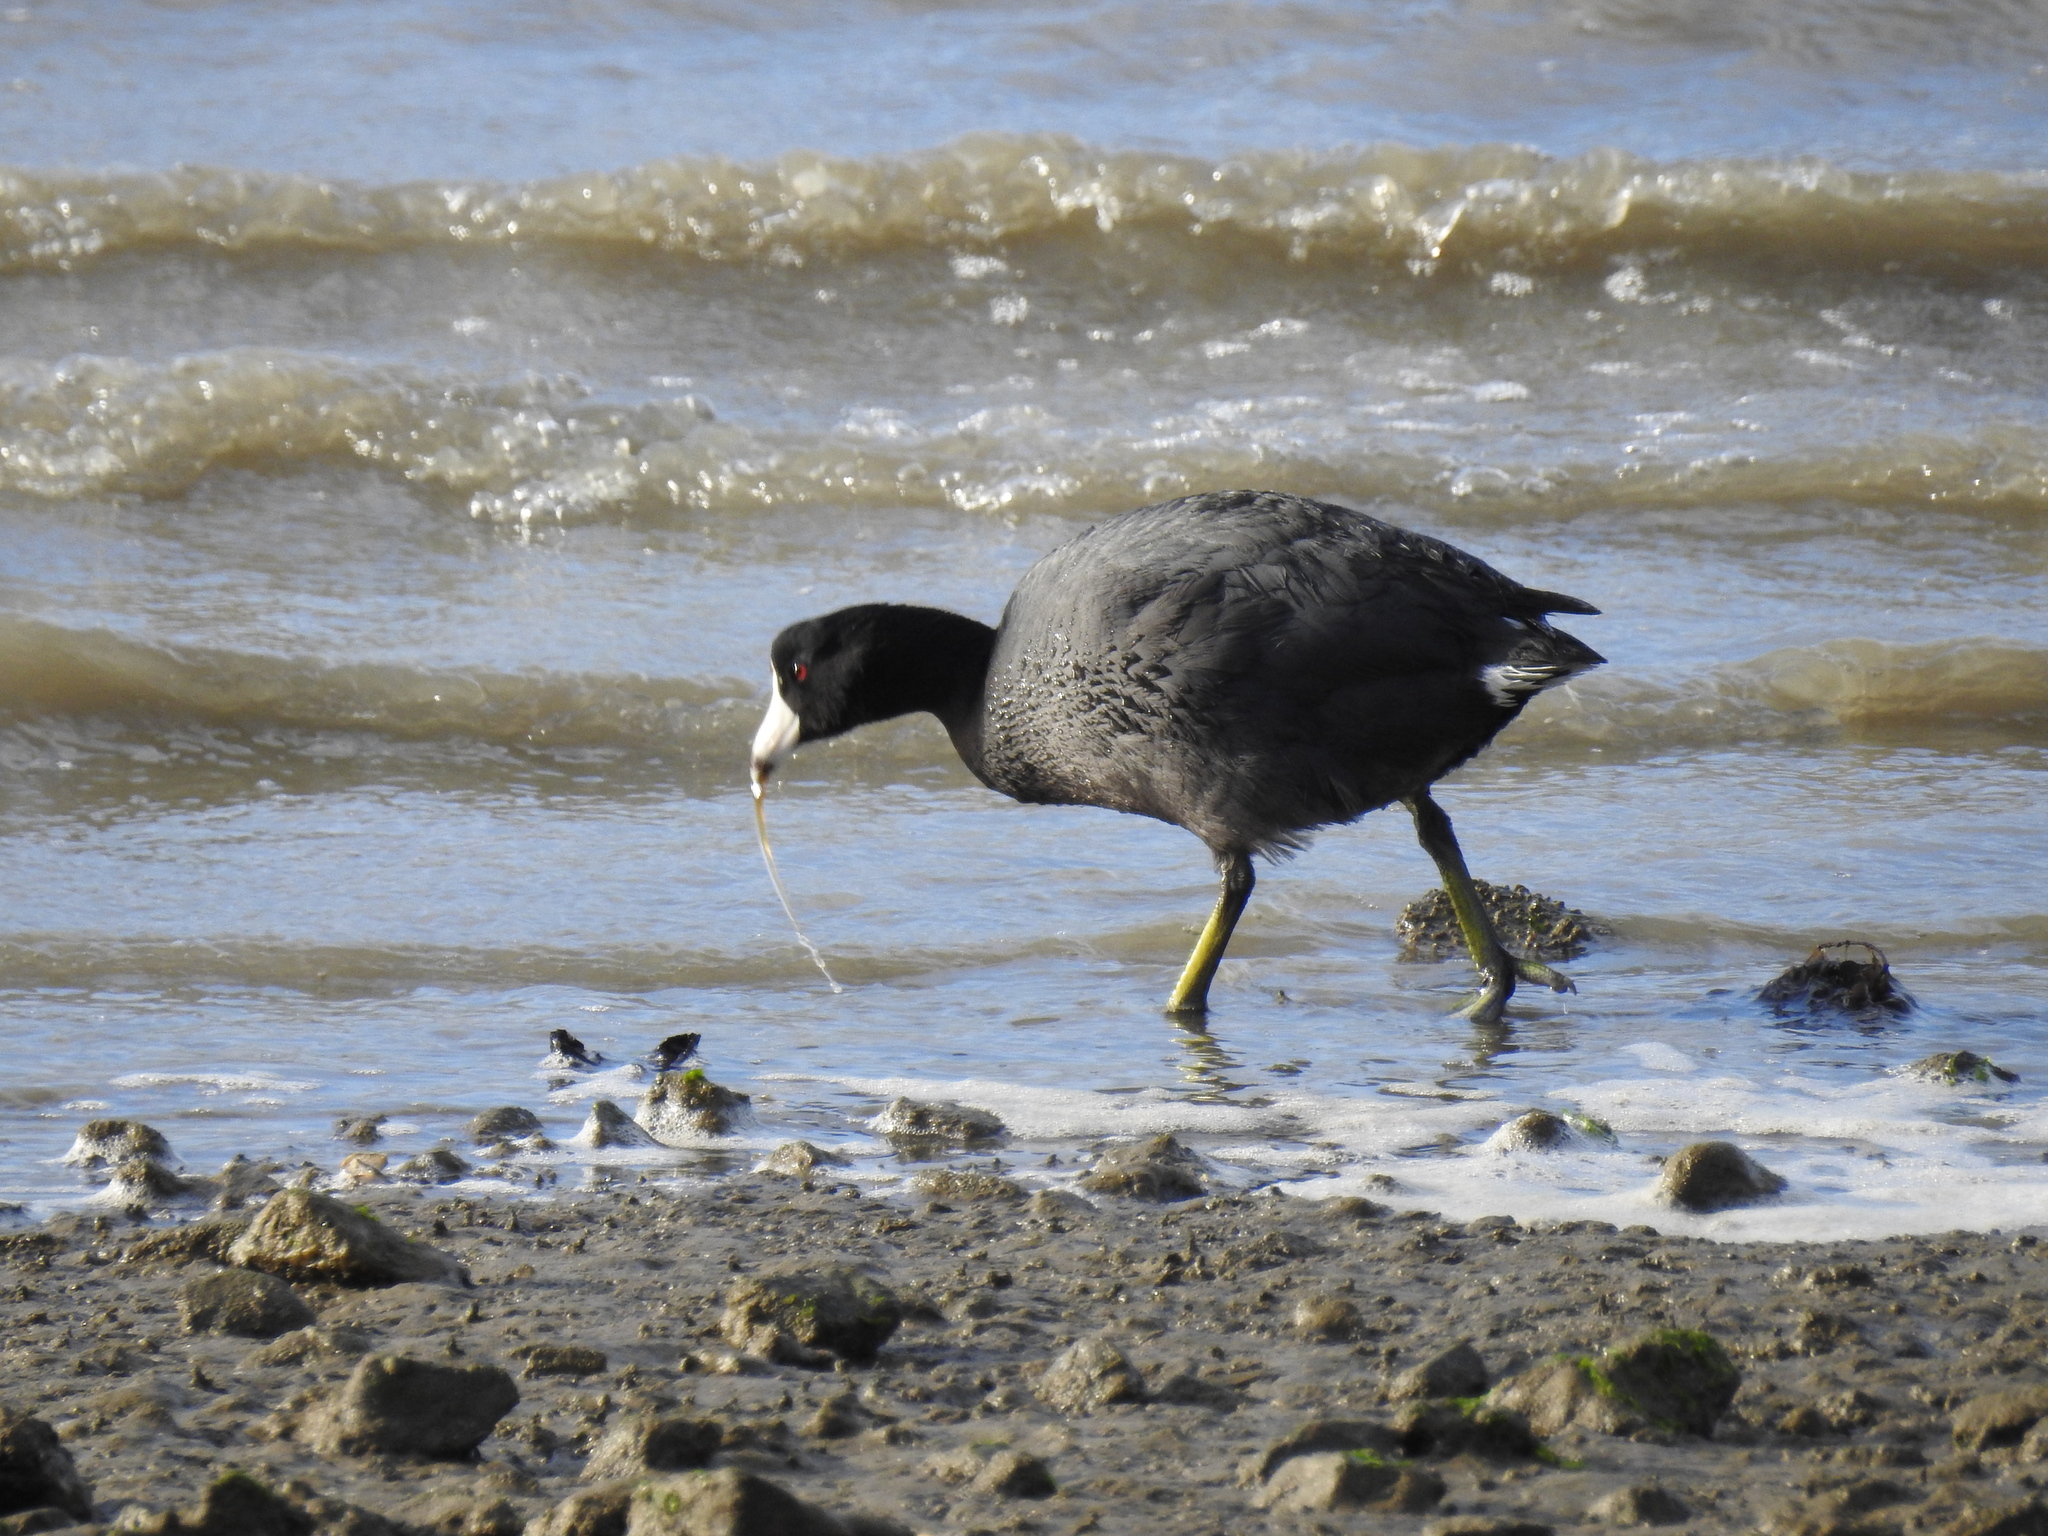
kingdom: Animalia
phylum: Chordata
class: Aves
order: Gruiformes
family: Rallidae
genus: Fulica
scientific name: Fulica americana
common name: American coot
